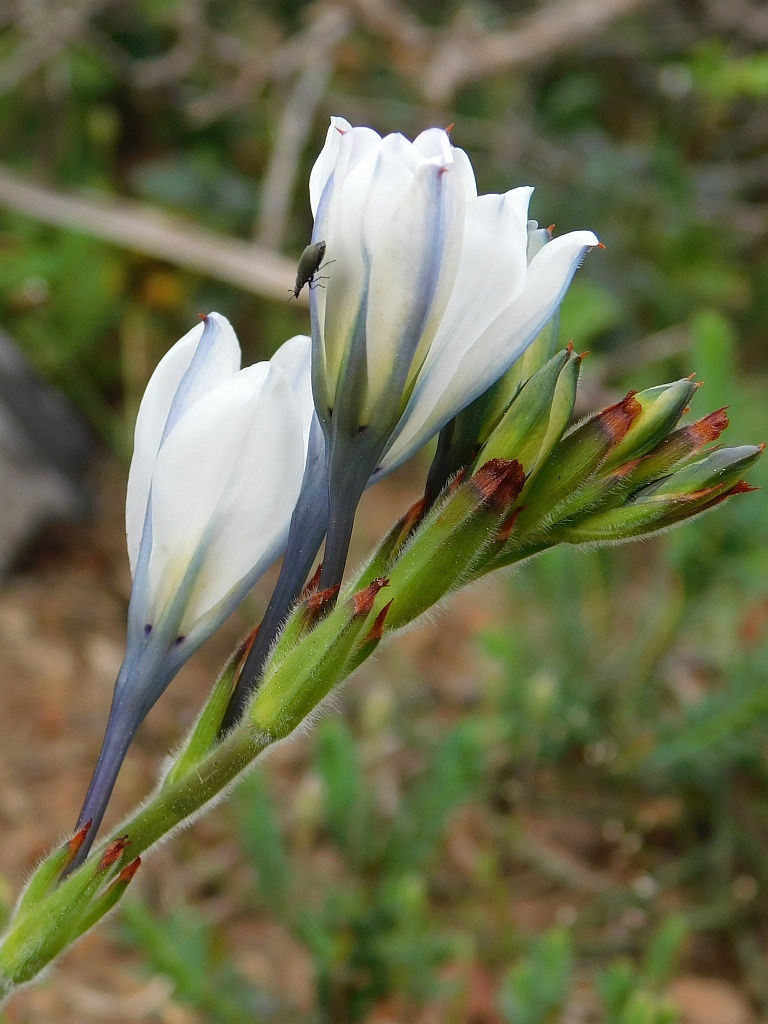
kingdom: Plantae
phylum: Tracheophyta
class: Liliopsida
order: Asparagales
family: Iridaceae
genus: Babiana
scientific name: Babiana nervosa
